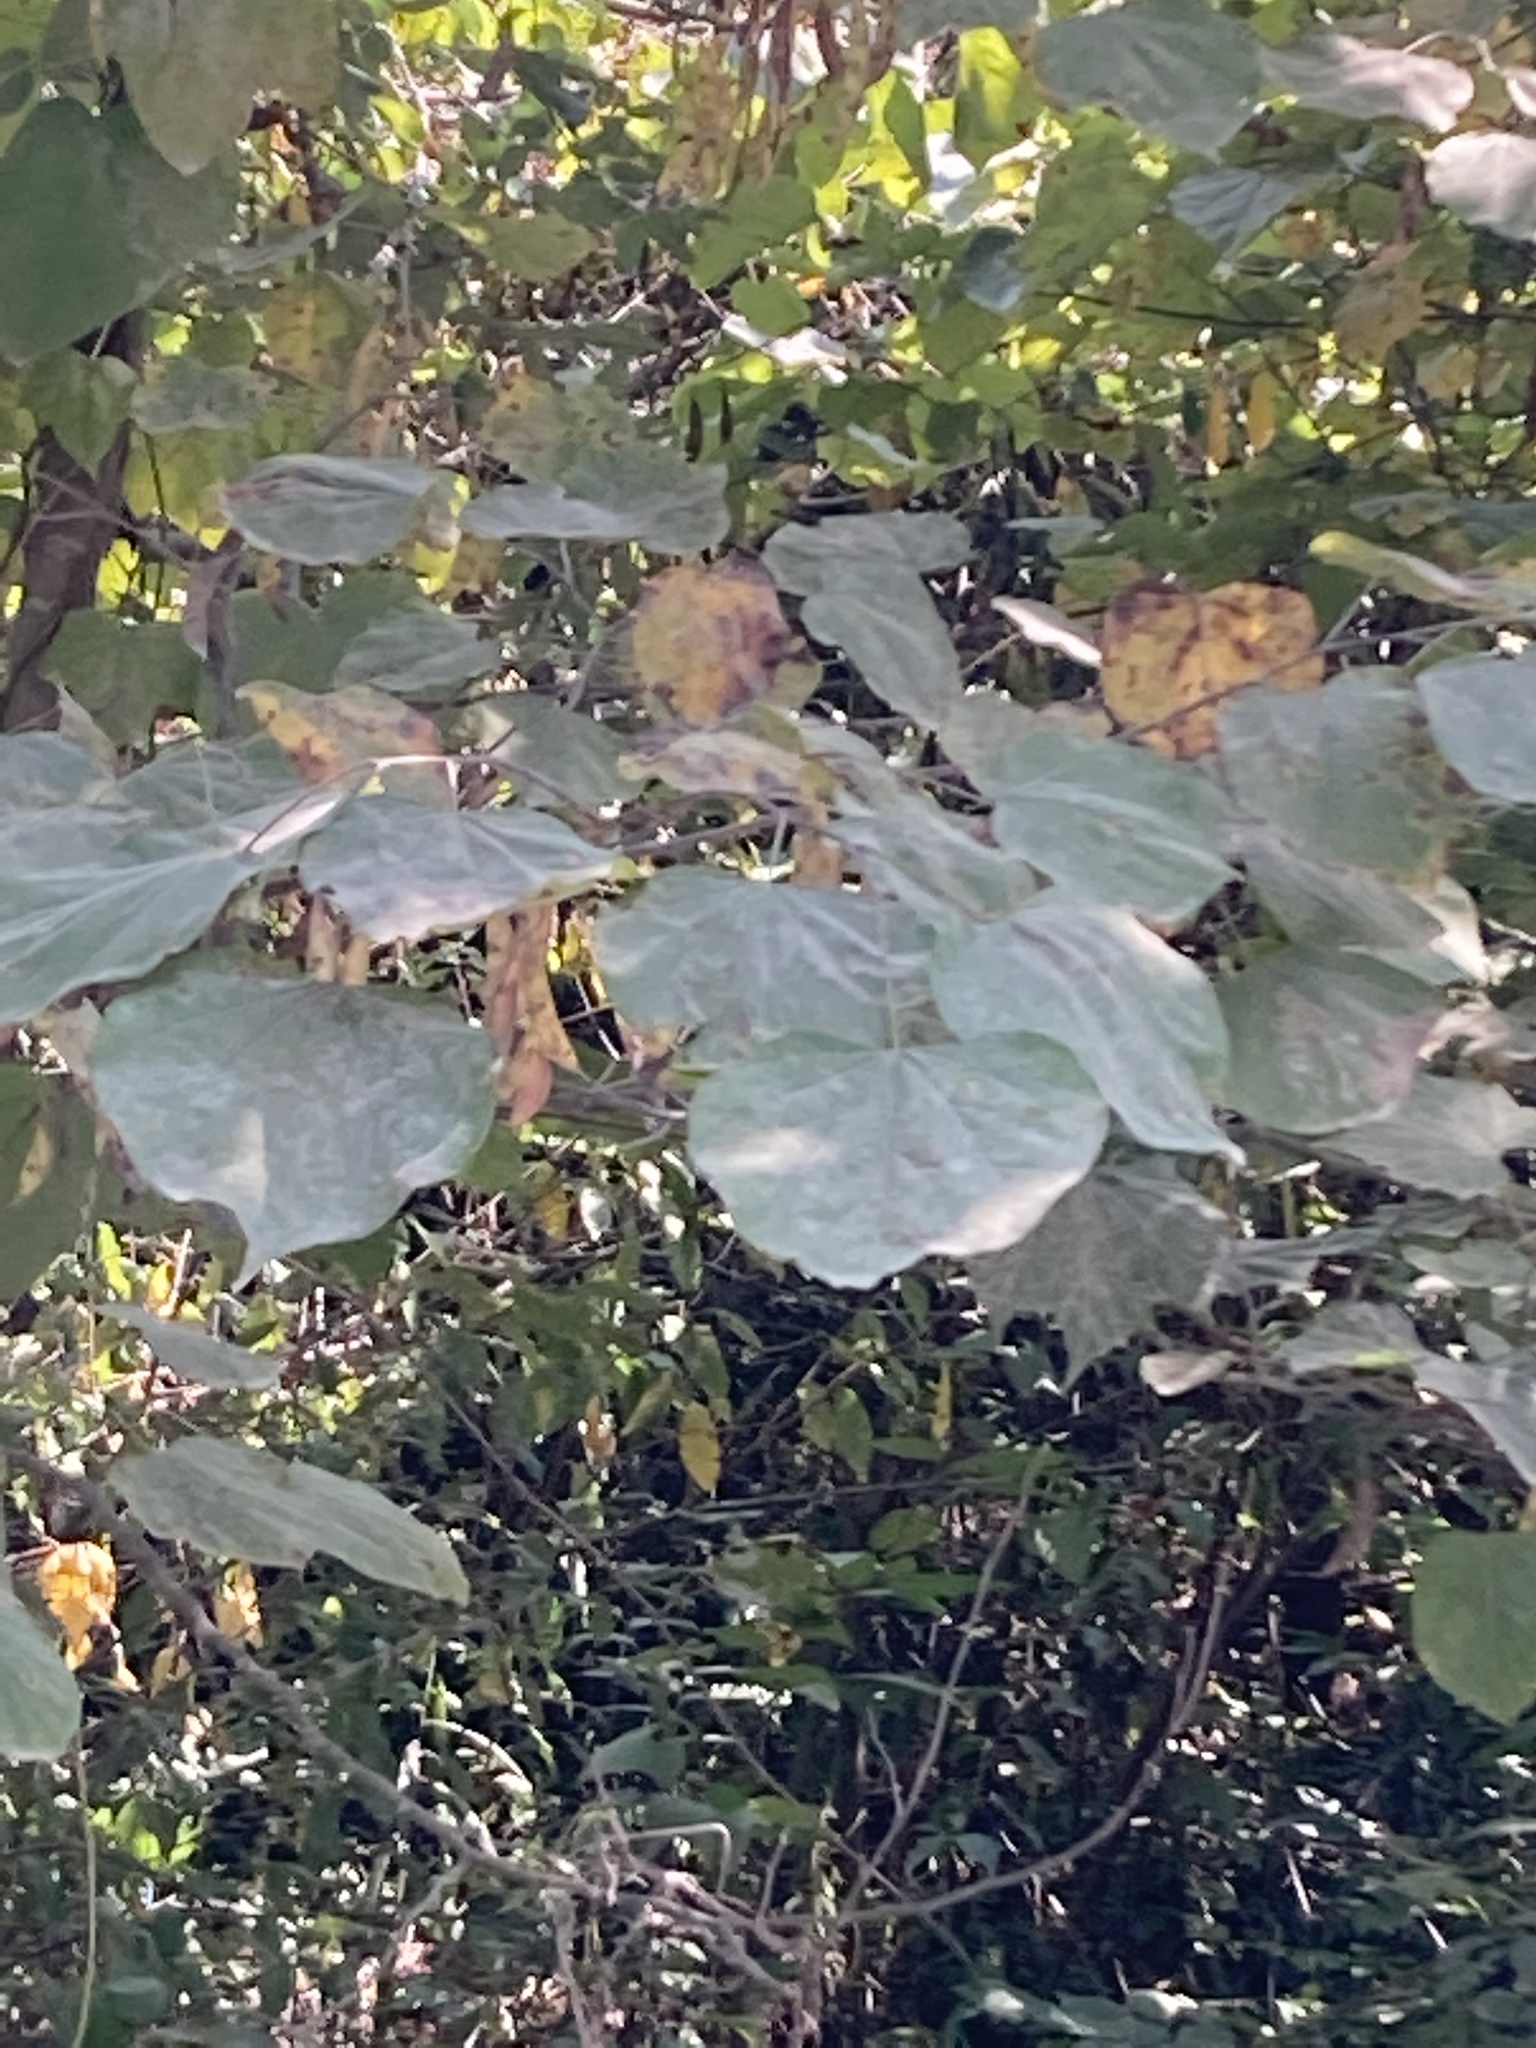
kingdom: Plantae
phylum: Tracheophyta
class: Magnoliopsida
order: Fabales
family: Fabaceae
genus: Cercis
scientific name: Cercis canadensis
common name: Eastern redbud
